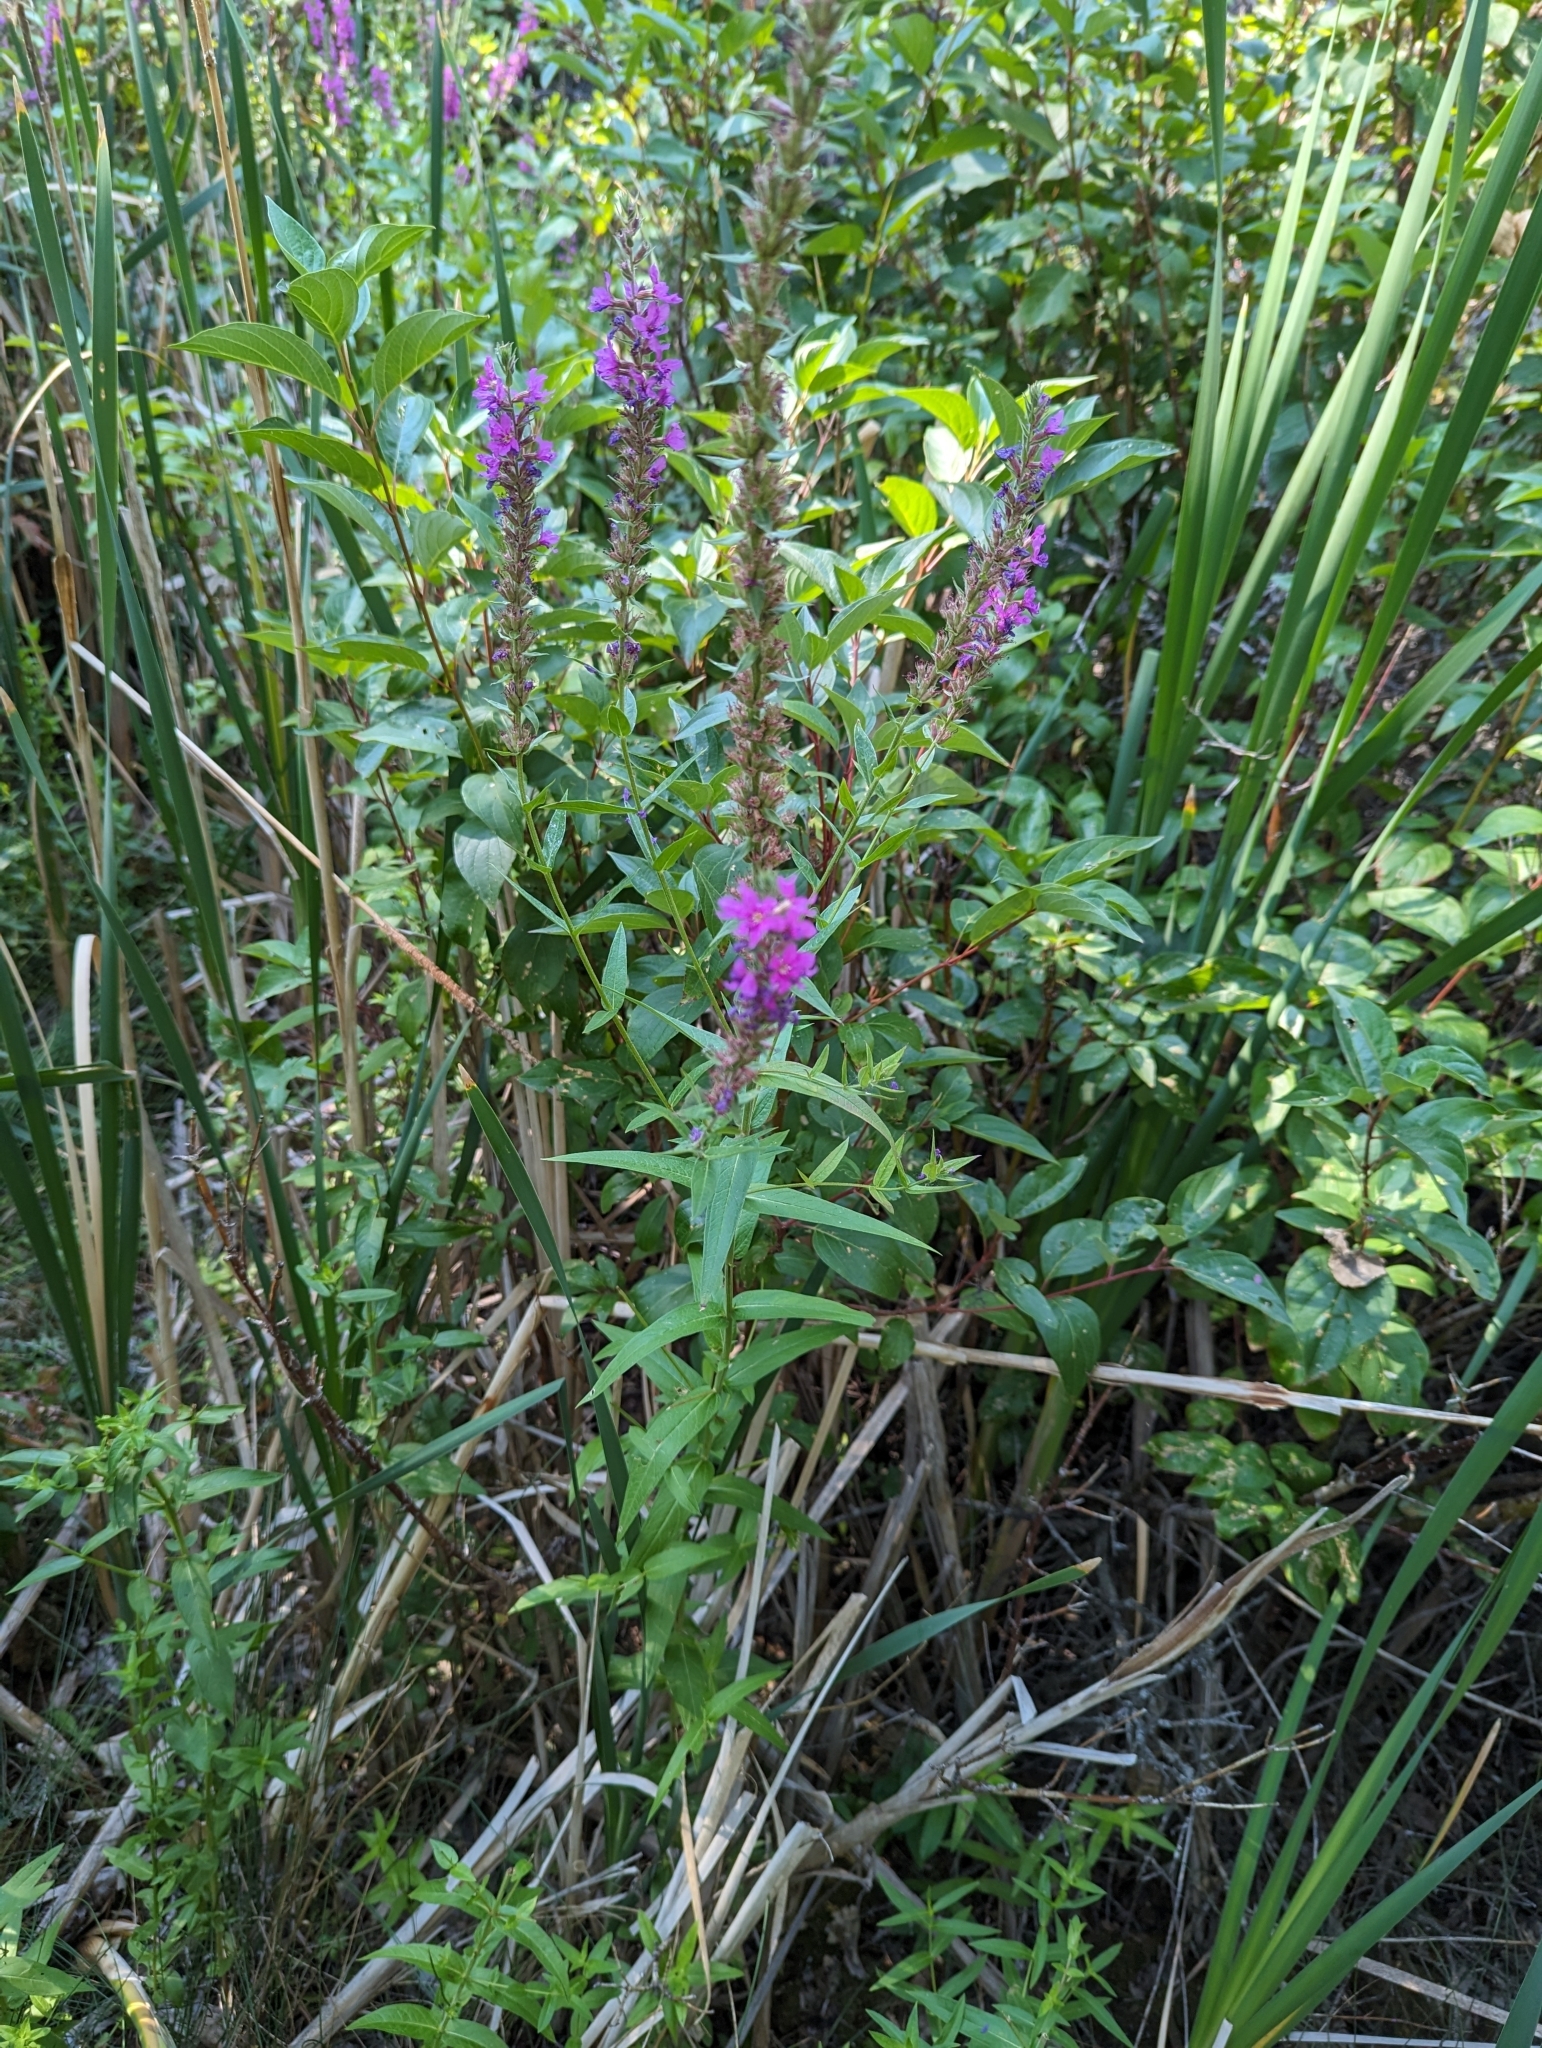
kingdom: Plantae
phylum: Tracheophyta
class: Magnoliopsida
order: Myrtales
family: Lythraceae
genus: Lythrum
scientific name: Lythrum salicaria
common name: Purple loosestrife
